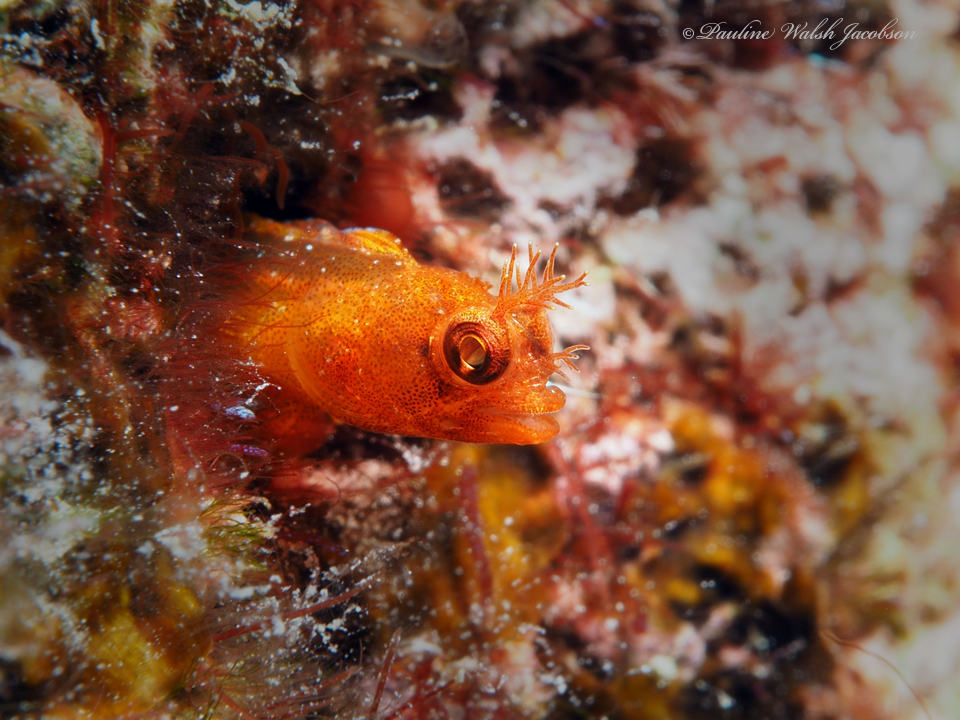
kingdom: Animalia
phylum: Chordata
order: Perciformes
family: Chaenopsidae
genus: Acanthemblemaria
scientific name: Acanthemblemaria aspera
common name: Roughhead blenny
